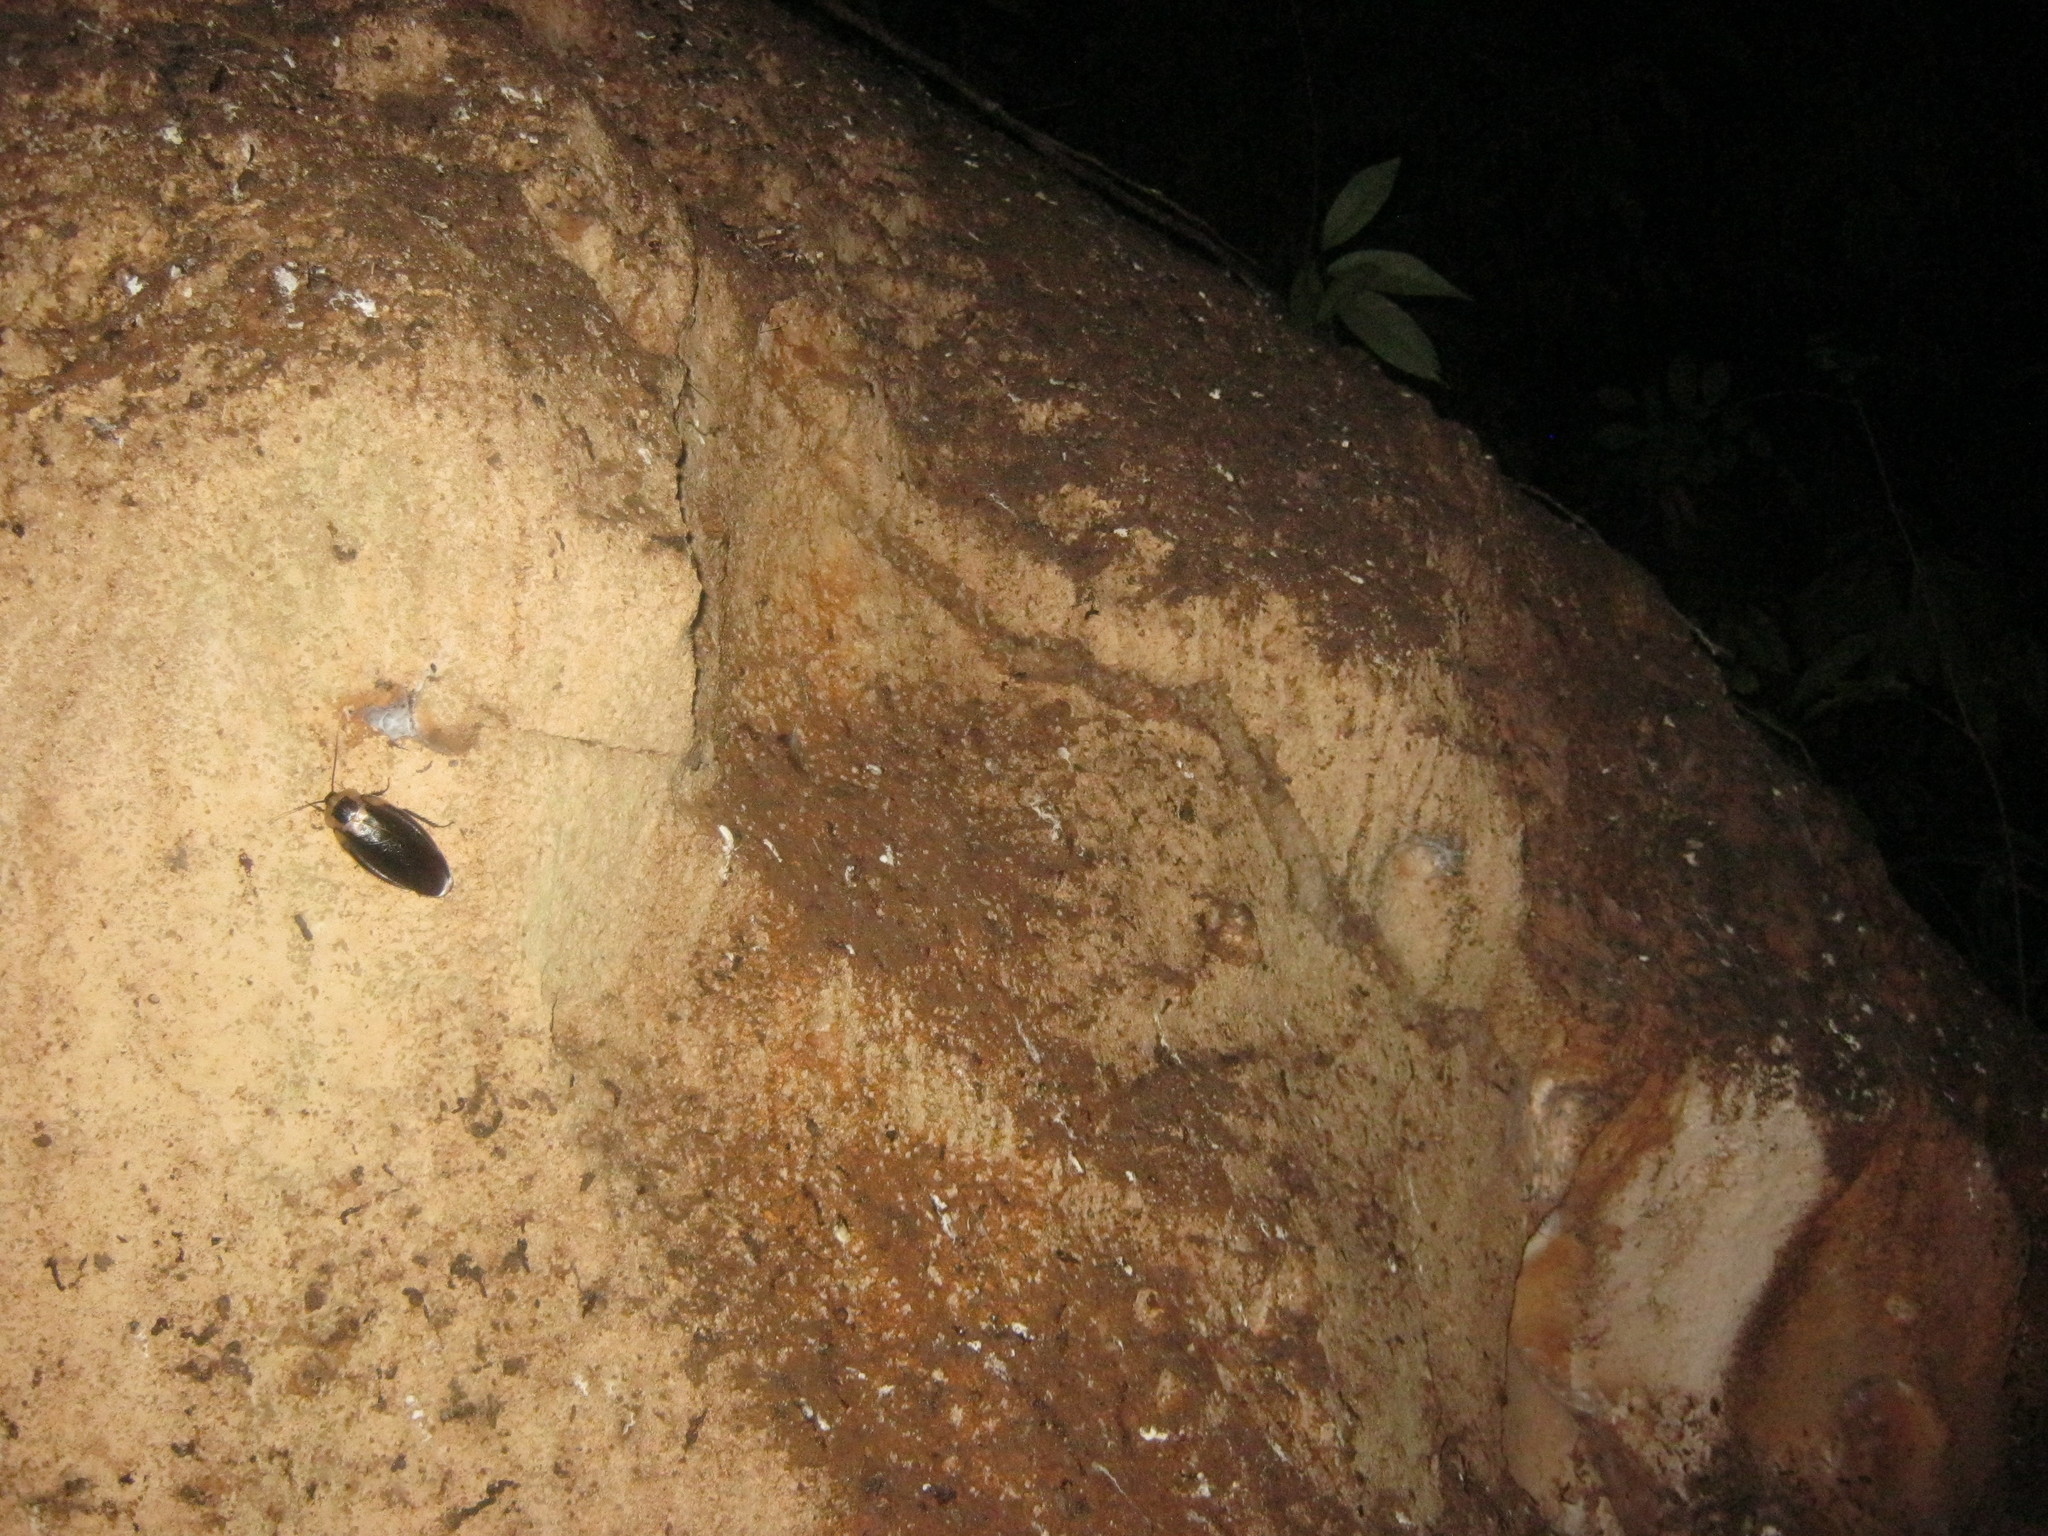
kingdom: Animalia
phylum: Arthropoda
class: Insecta
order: Blattodea
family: Blaberidae
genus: Blaberus
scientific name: Blaberus craniifer
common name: Death's head cockroach
